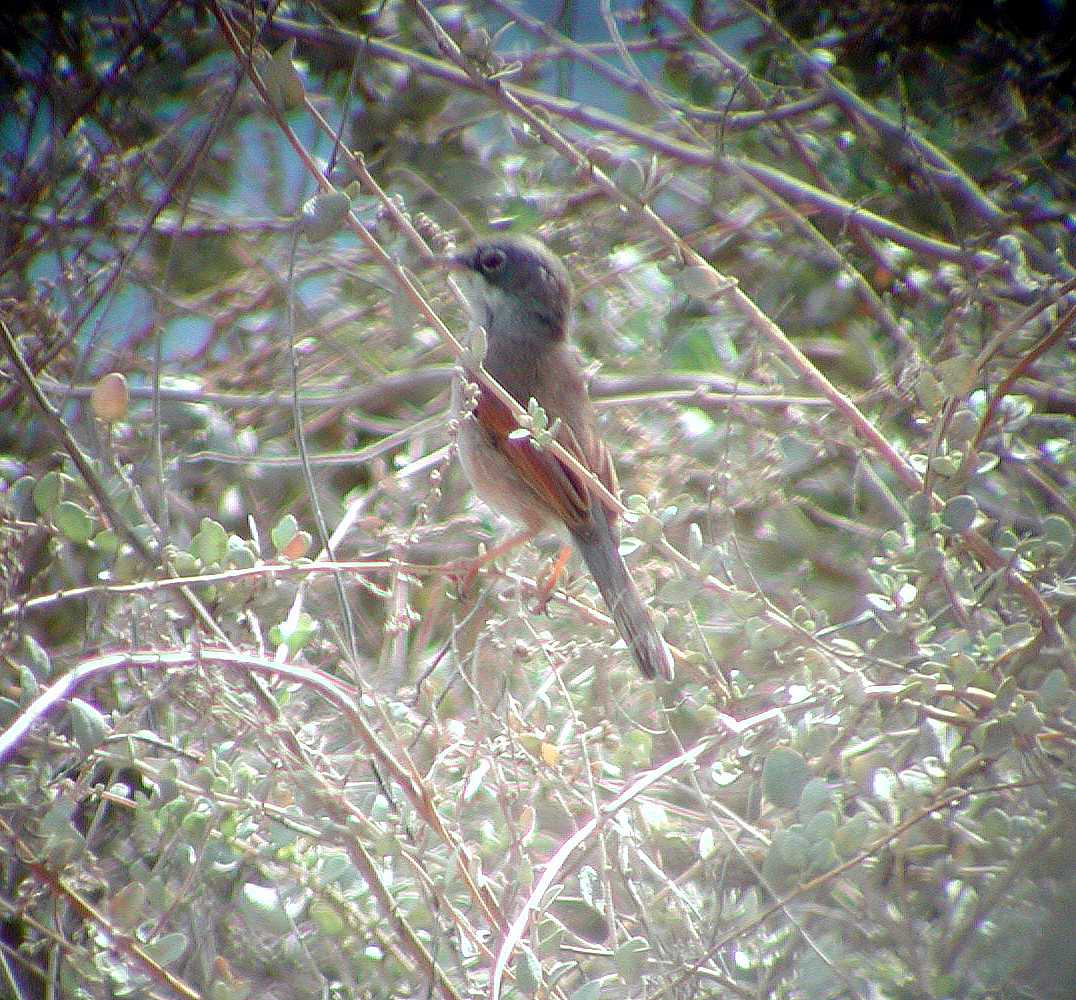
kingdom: Animalia
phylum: Chordata
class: Aves
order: Passeriformes
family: Sylviidae
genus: Sylvia
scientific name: Sylvia conspicillata
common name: Spectacled warbler
